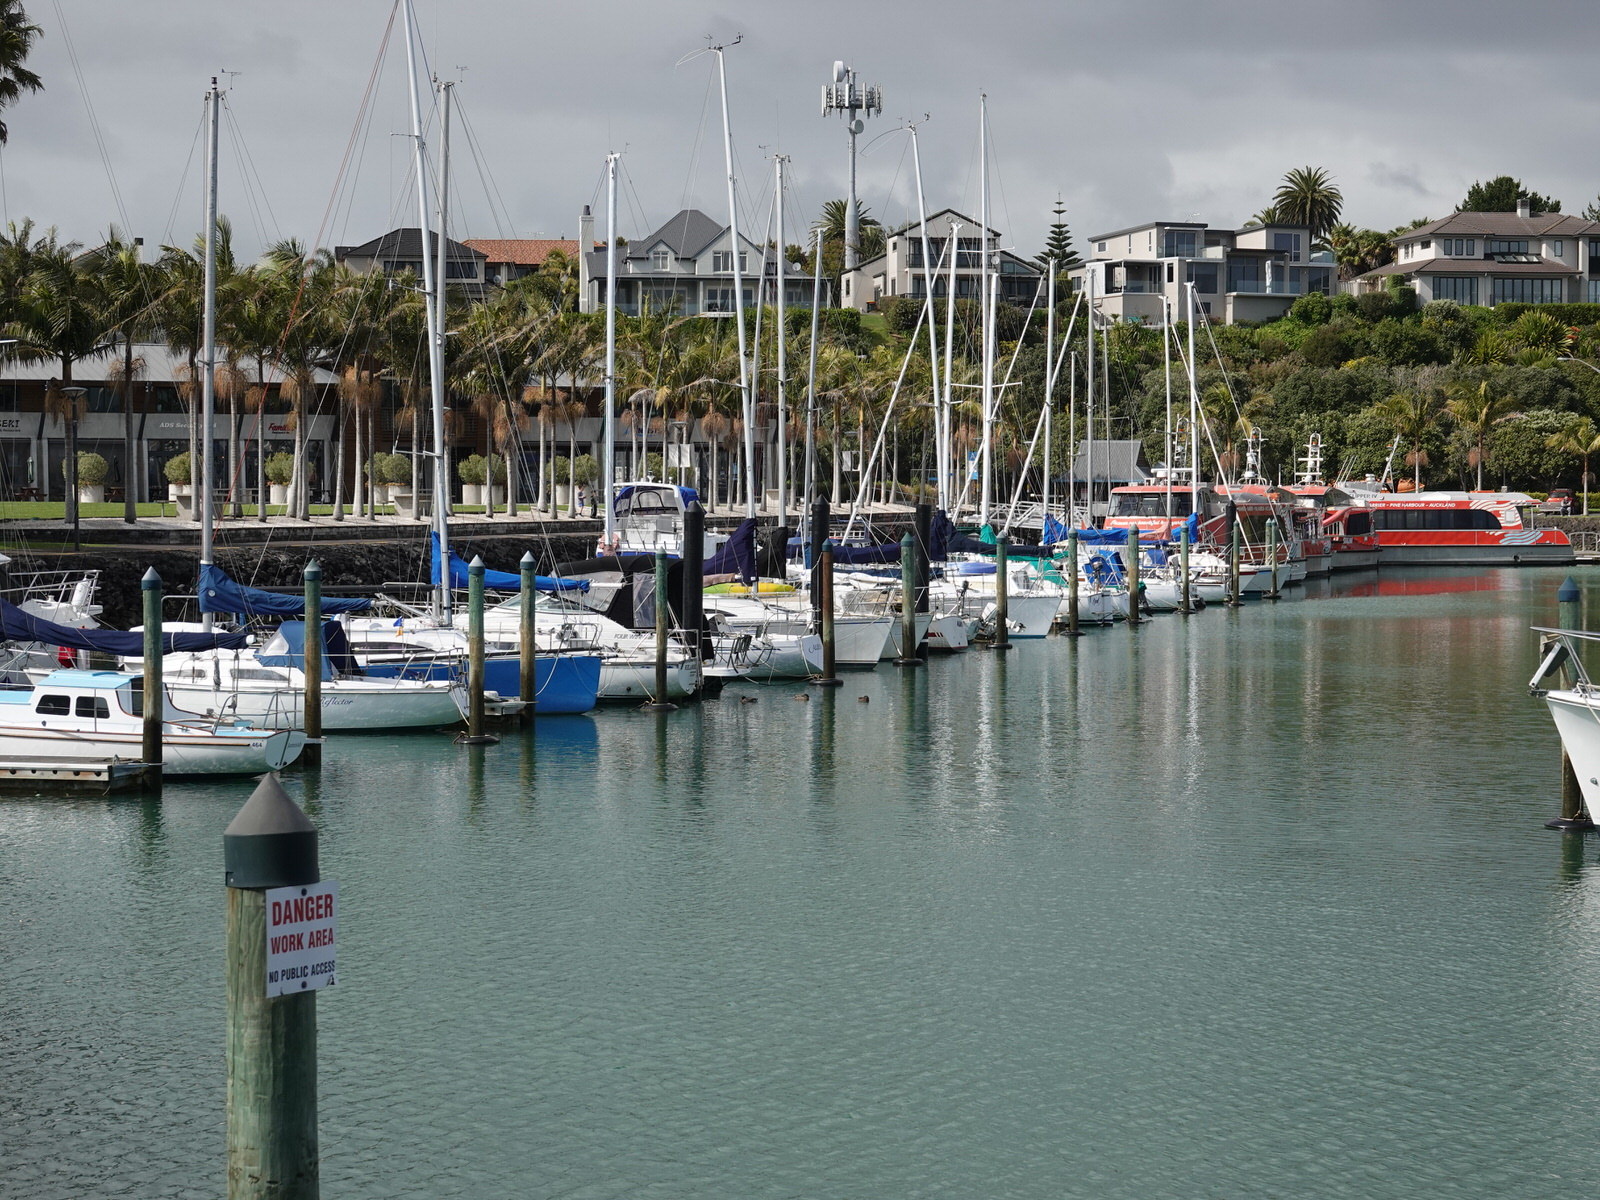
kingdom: Animalia
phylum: Chordata
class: Aves
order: Anseriformes
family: Anatidae
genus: Anas
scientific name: Anas
